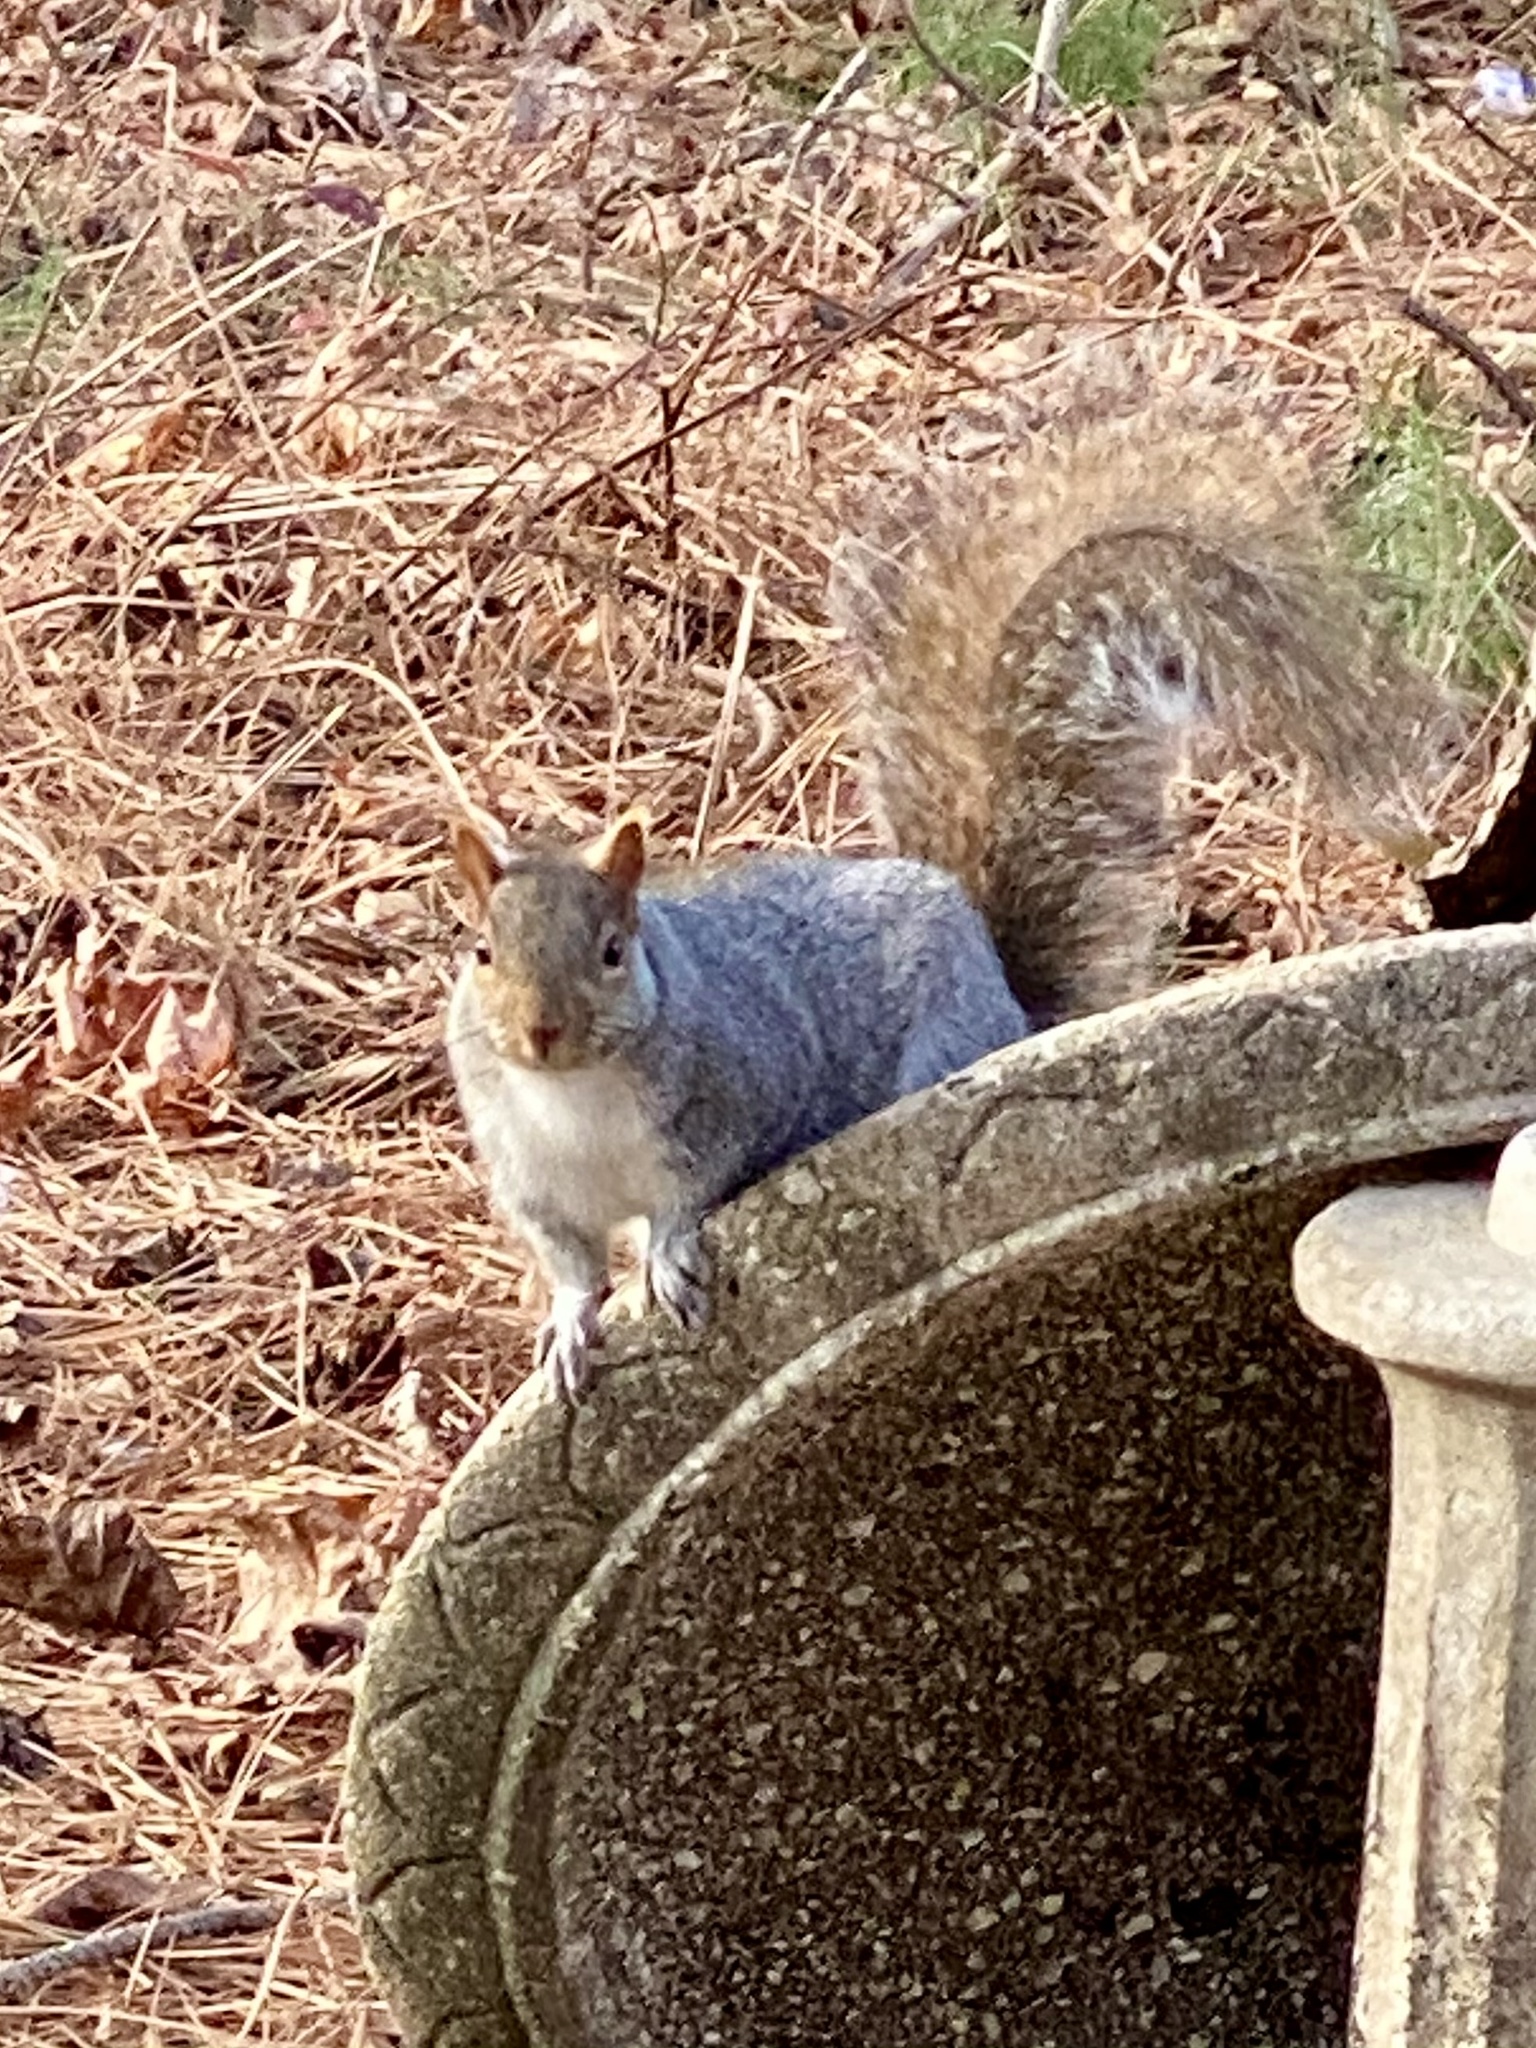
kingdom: Animalia
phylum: Chordata
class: Mammalia
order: Rodentia
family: Sciuridae
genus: Sciurus
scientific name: Sciurus carolinensis
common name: Eastern gray squirrel
